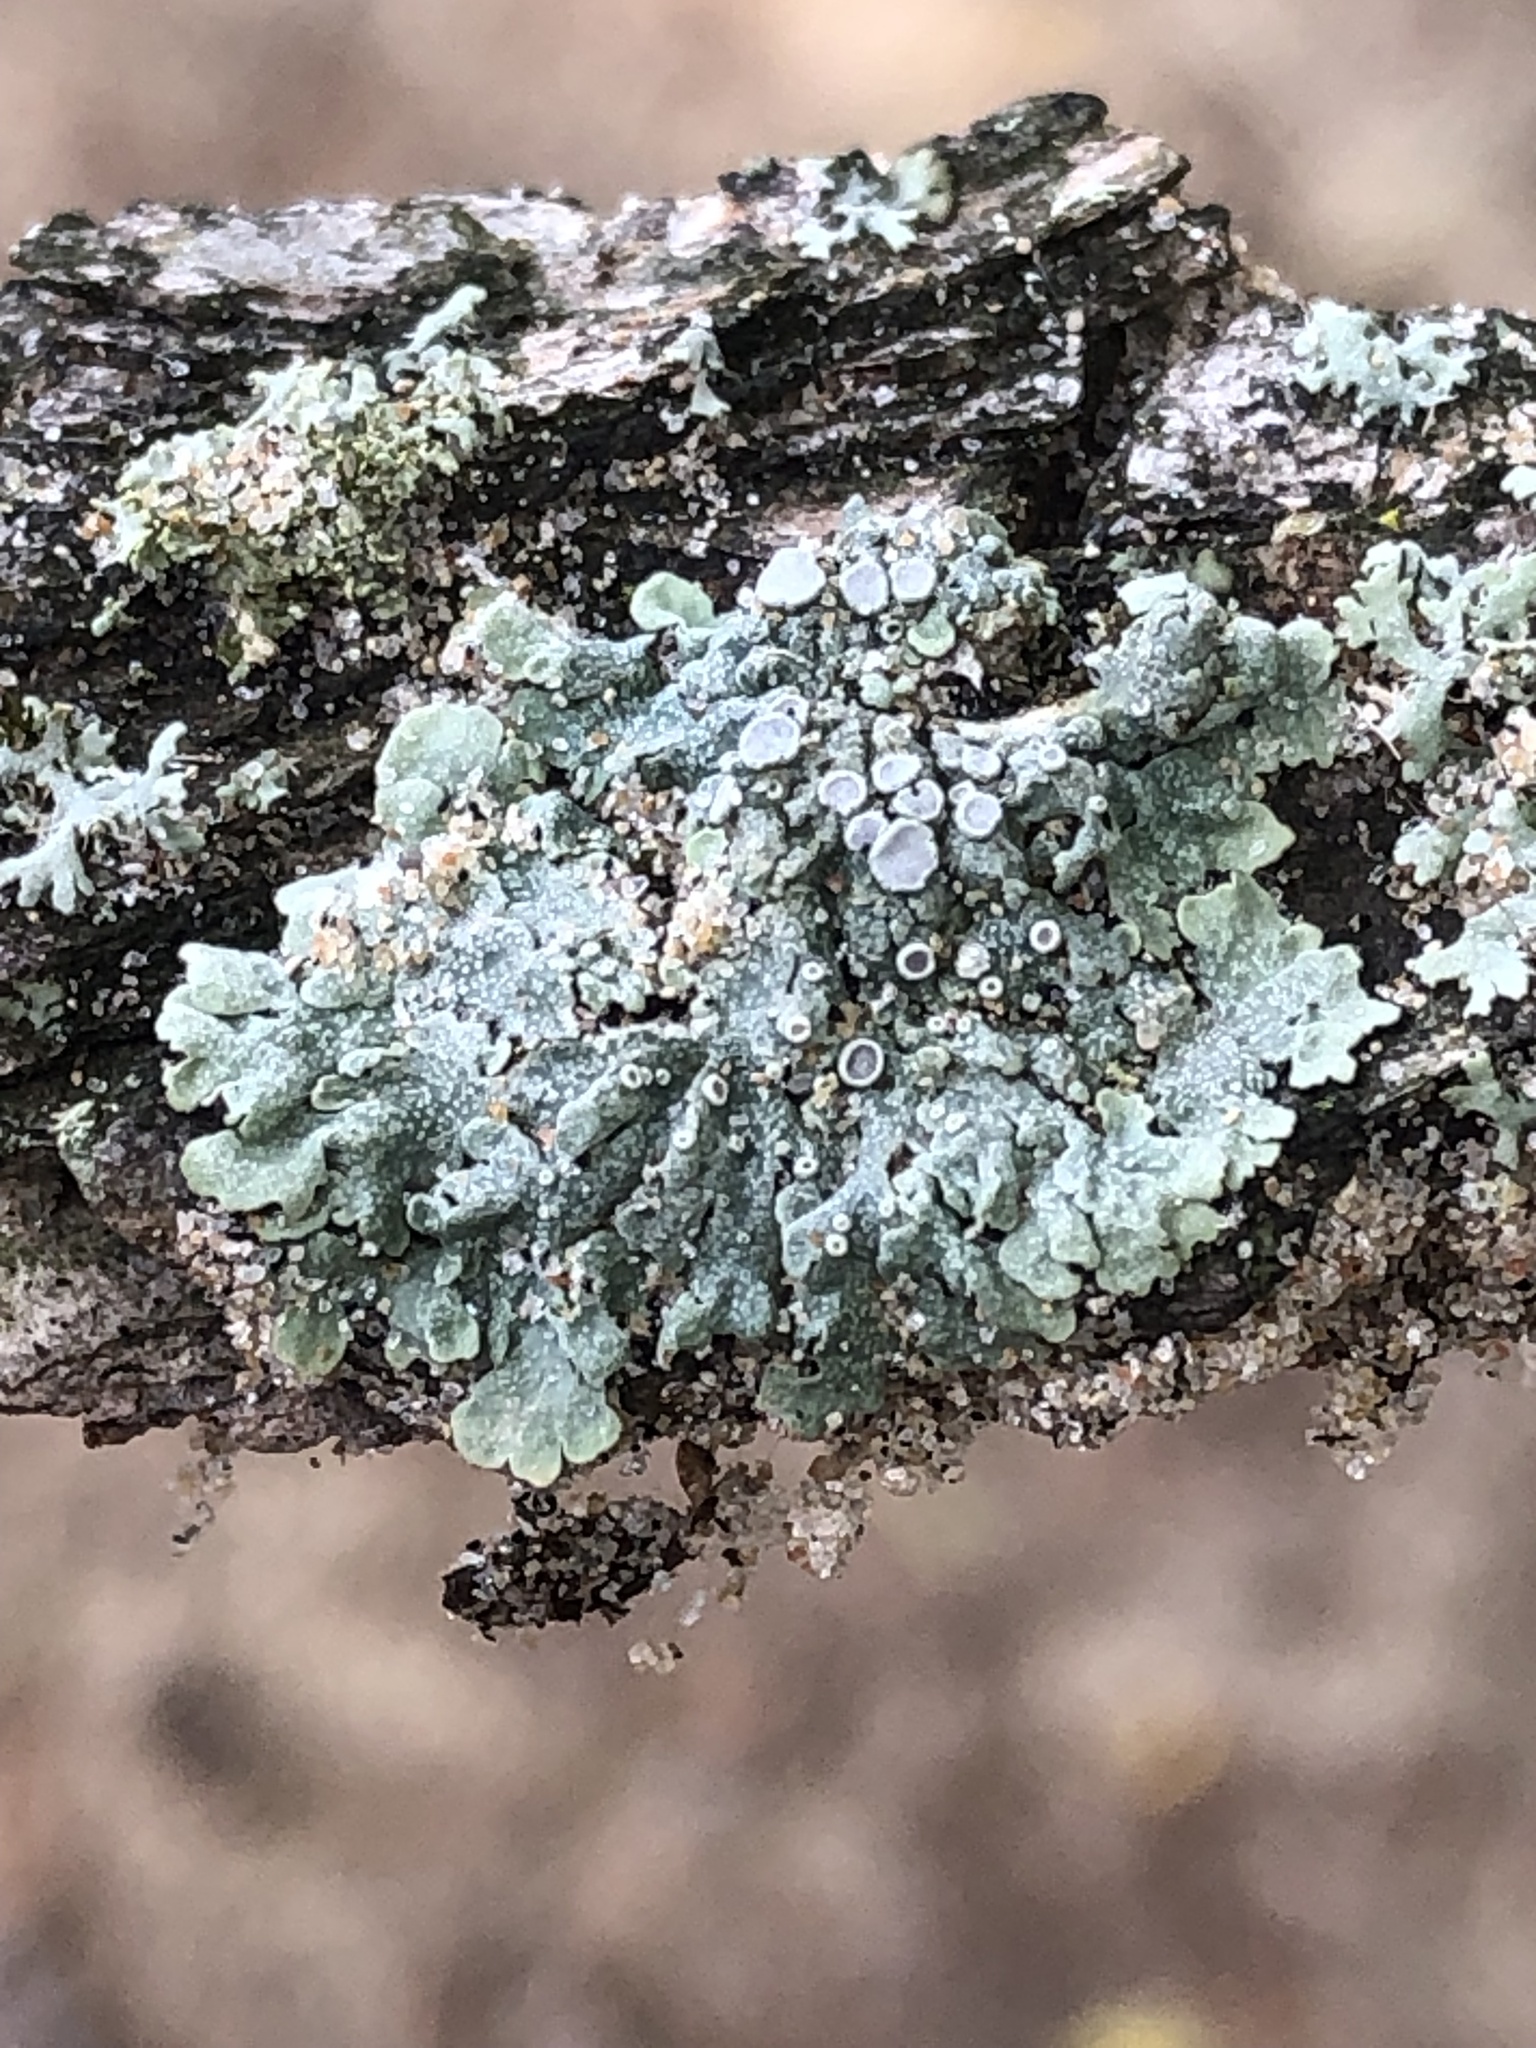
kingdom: Fungi
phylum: Ascomycota
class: Lecanoromycetes
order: Caliciales
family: Physciaceae
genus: Physcia
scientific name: Physcia aipolia
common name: Hoary rosette lichen
